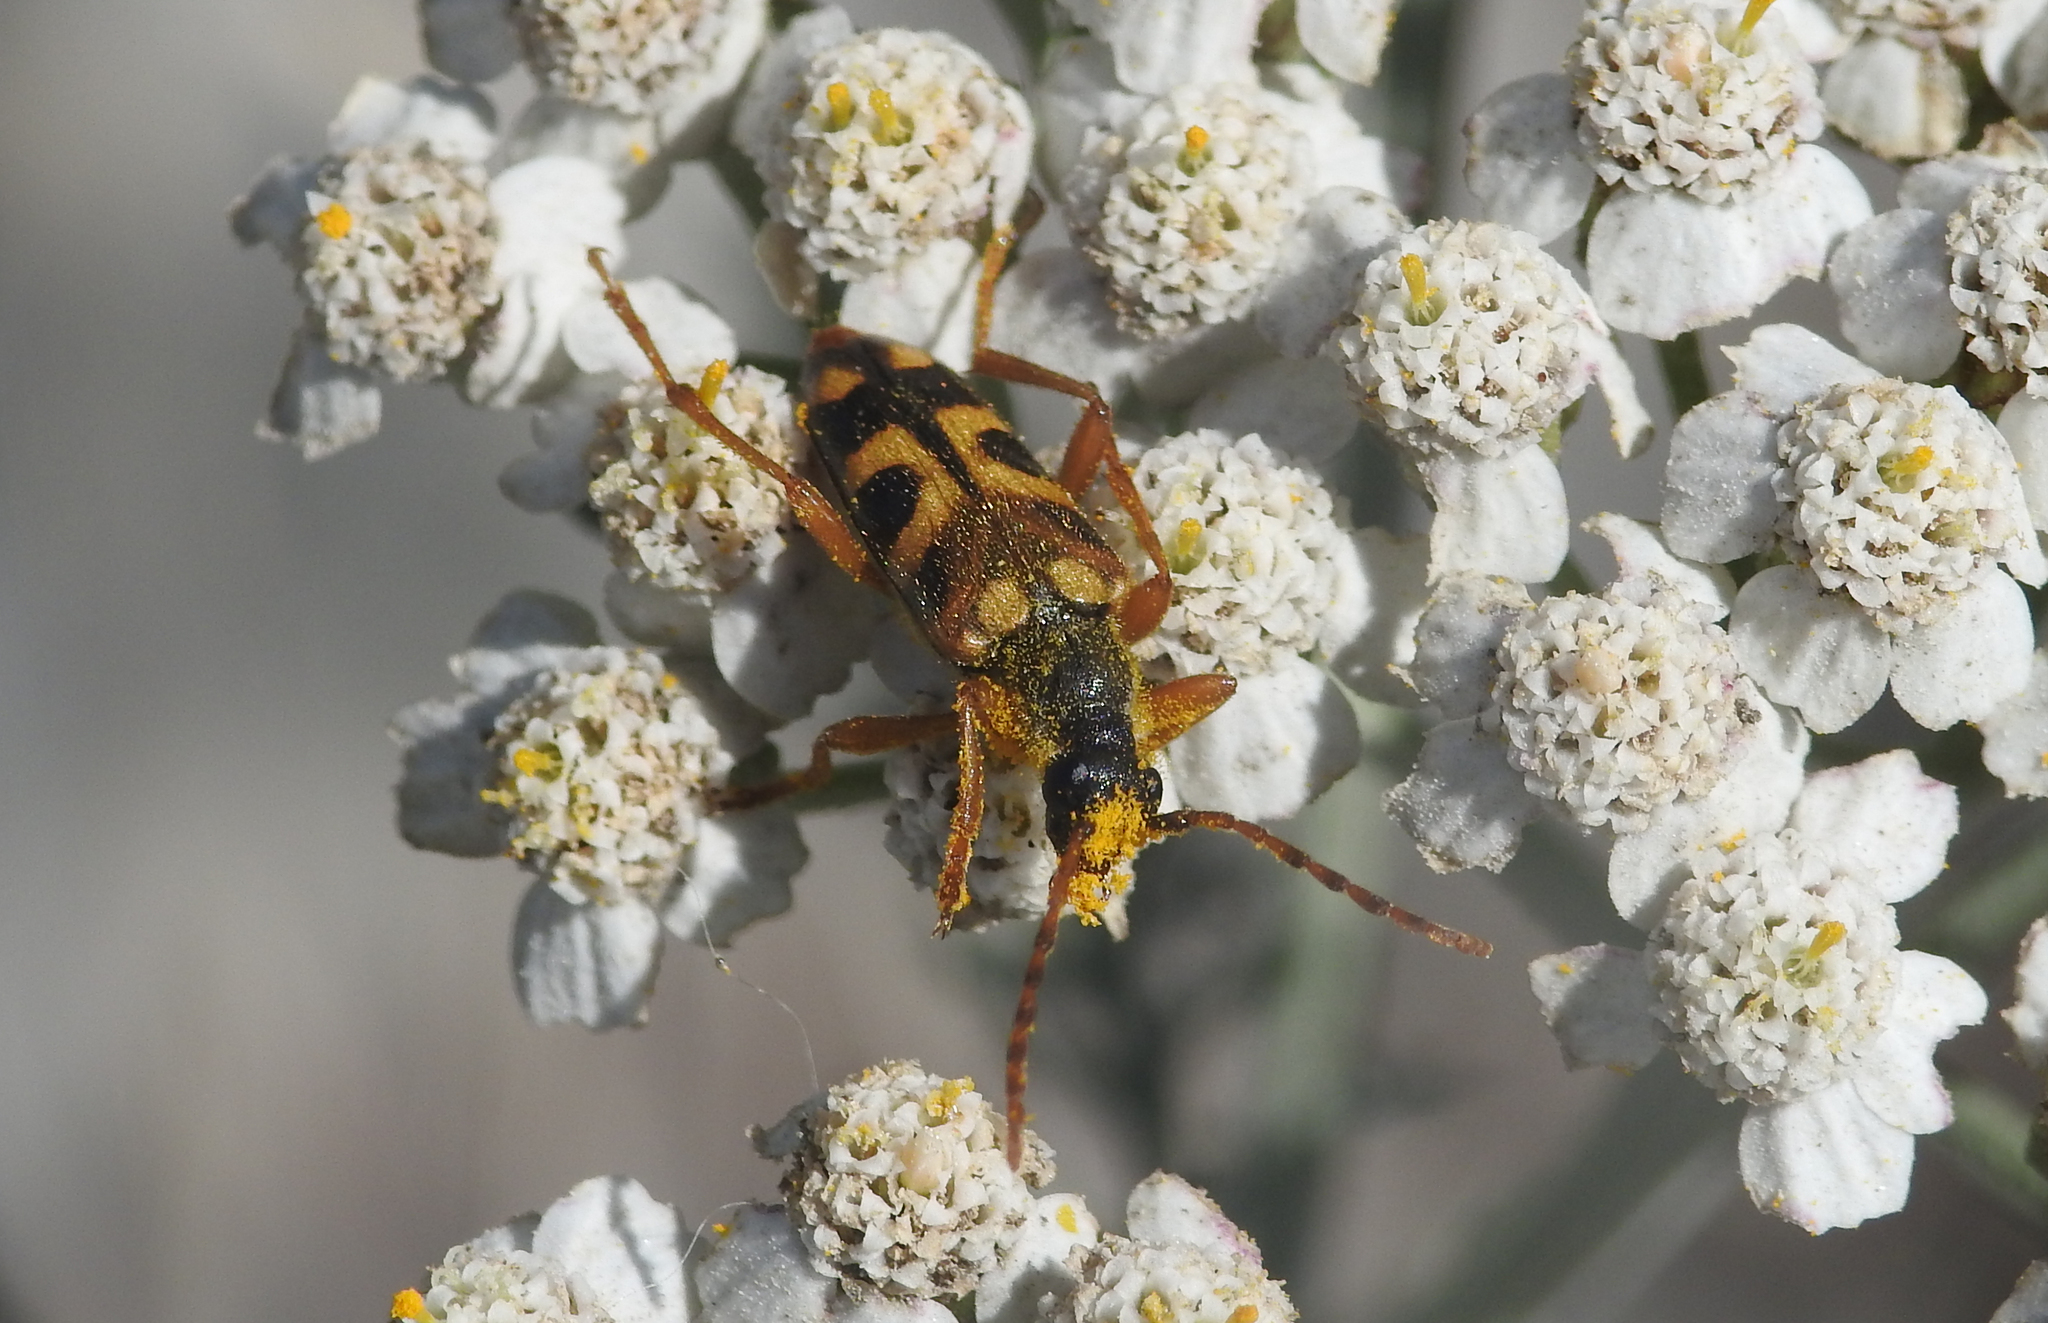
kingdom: Animalia
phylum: Arthropoda
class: Insecta
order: Coleoptera
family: Cerambycidae
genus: Xestoleptura
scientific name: Xestoleptura crassipes
